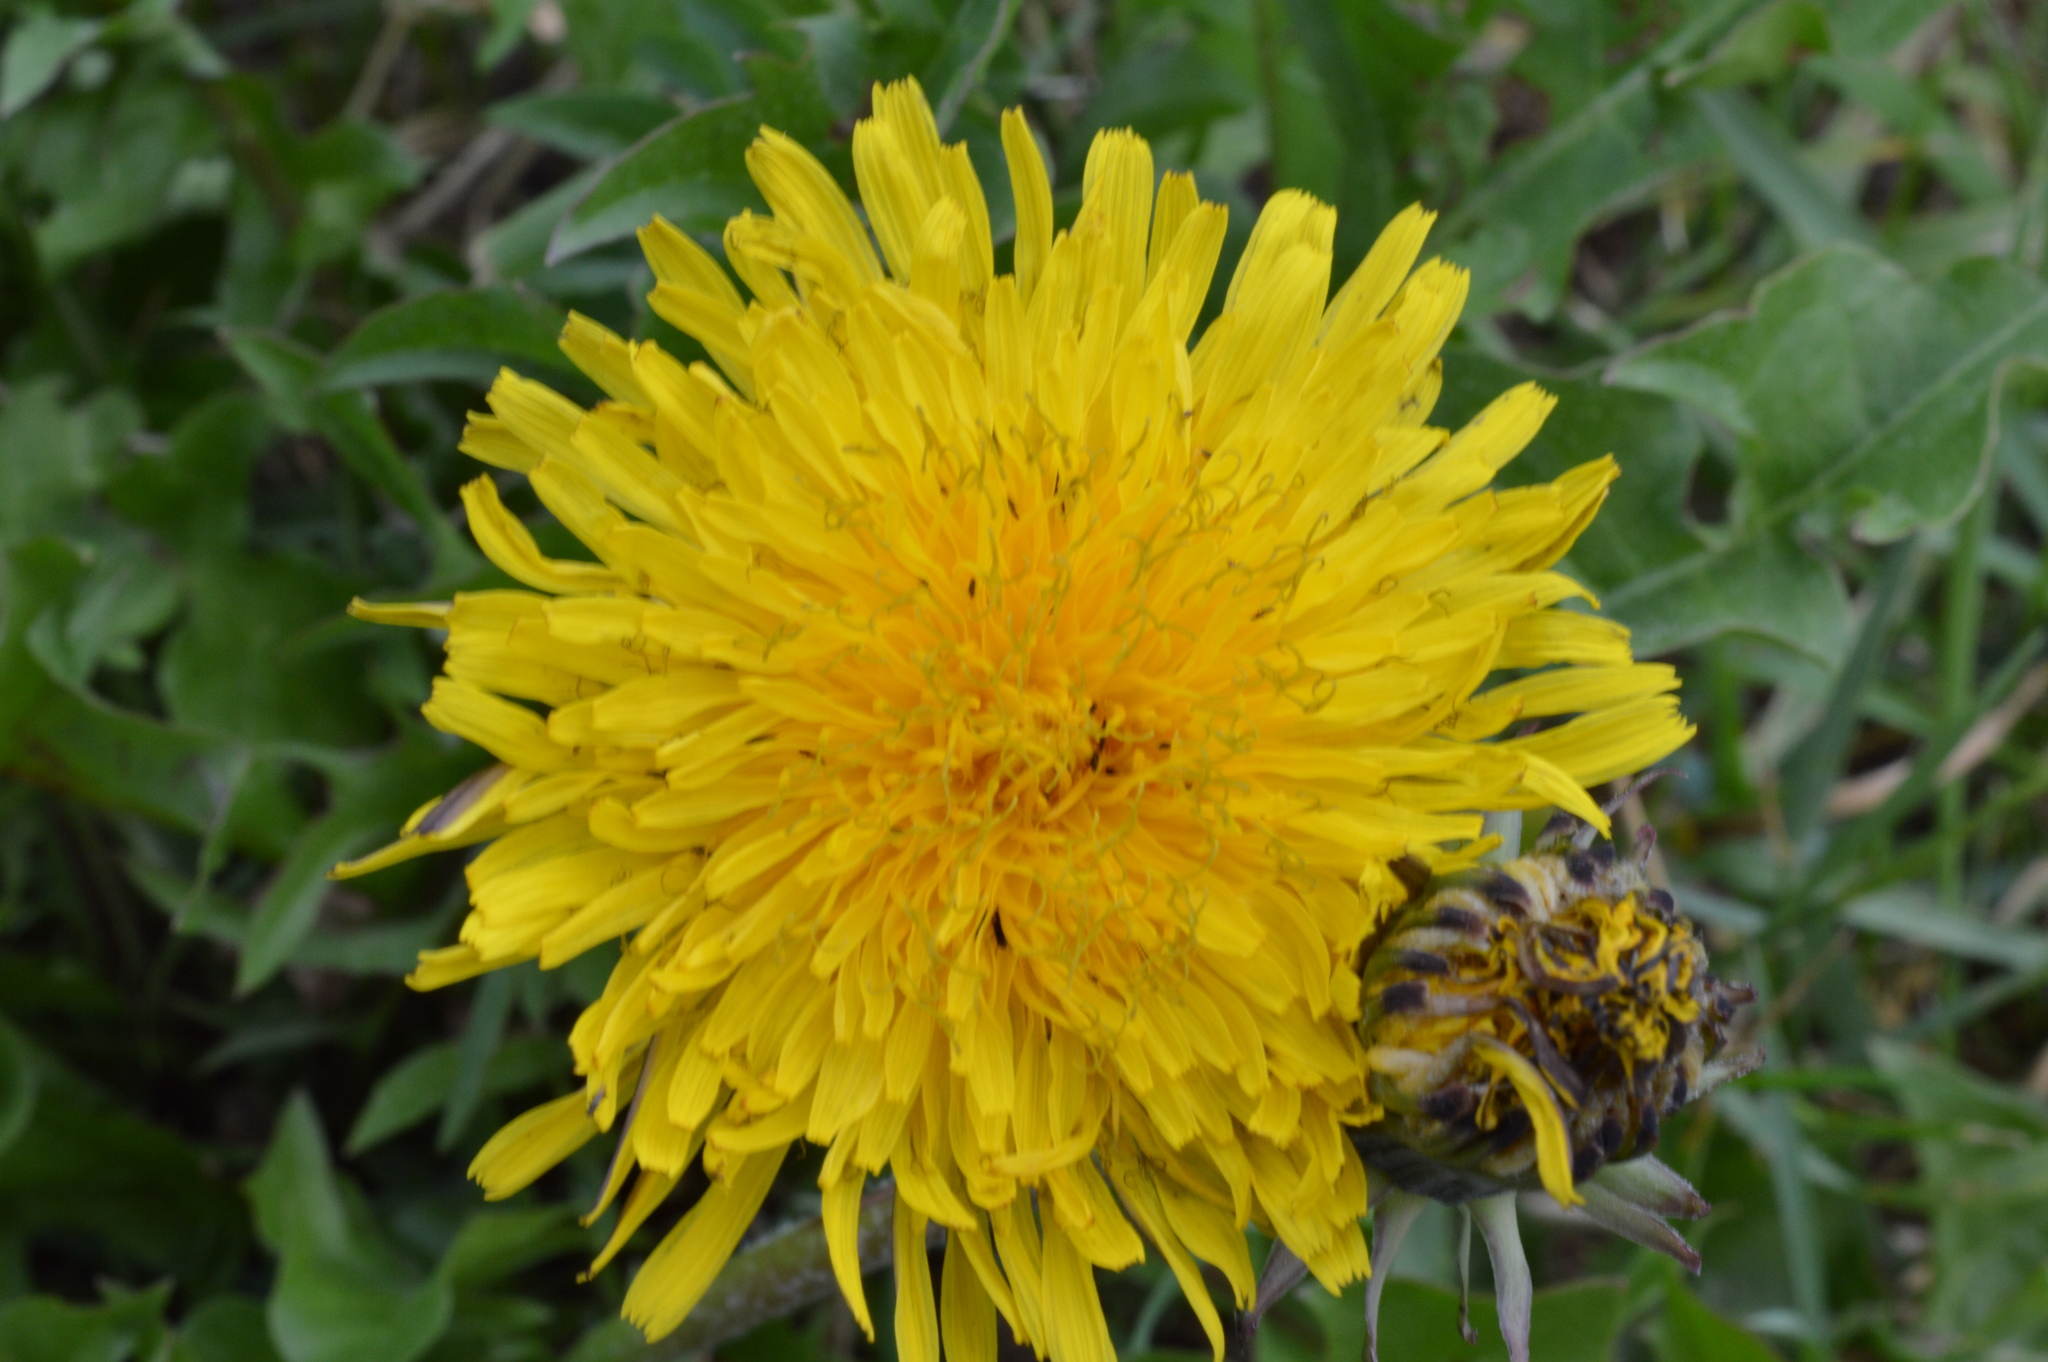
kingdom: Plantae
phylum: Tracheophyta
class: Magnoliopsida
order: Asterales
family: Asteraceae
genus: Taraxacum
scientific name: Taraxacum
